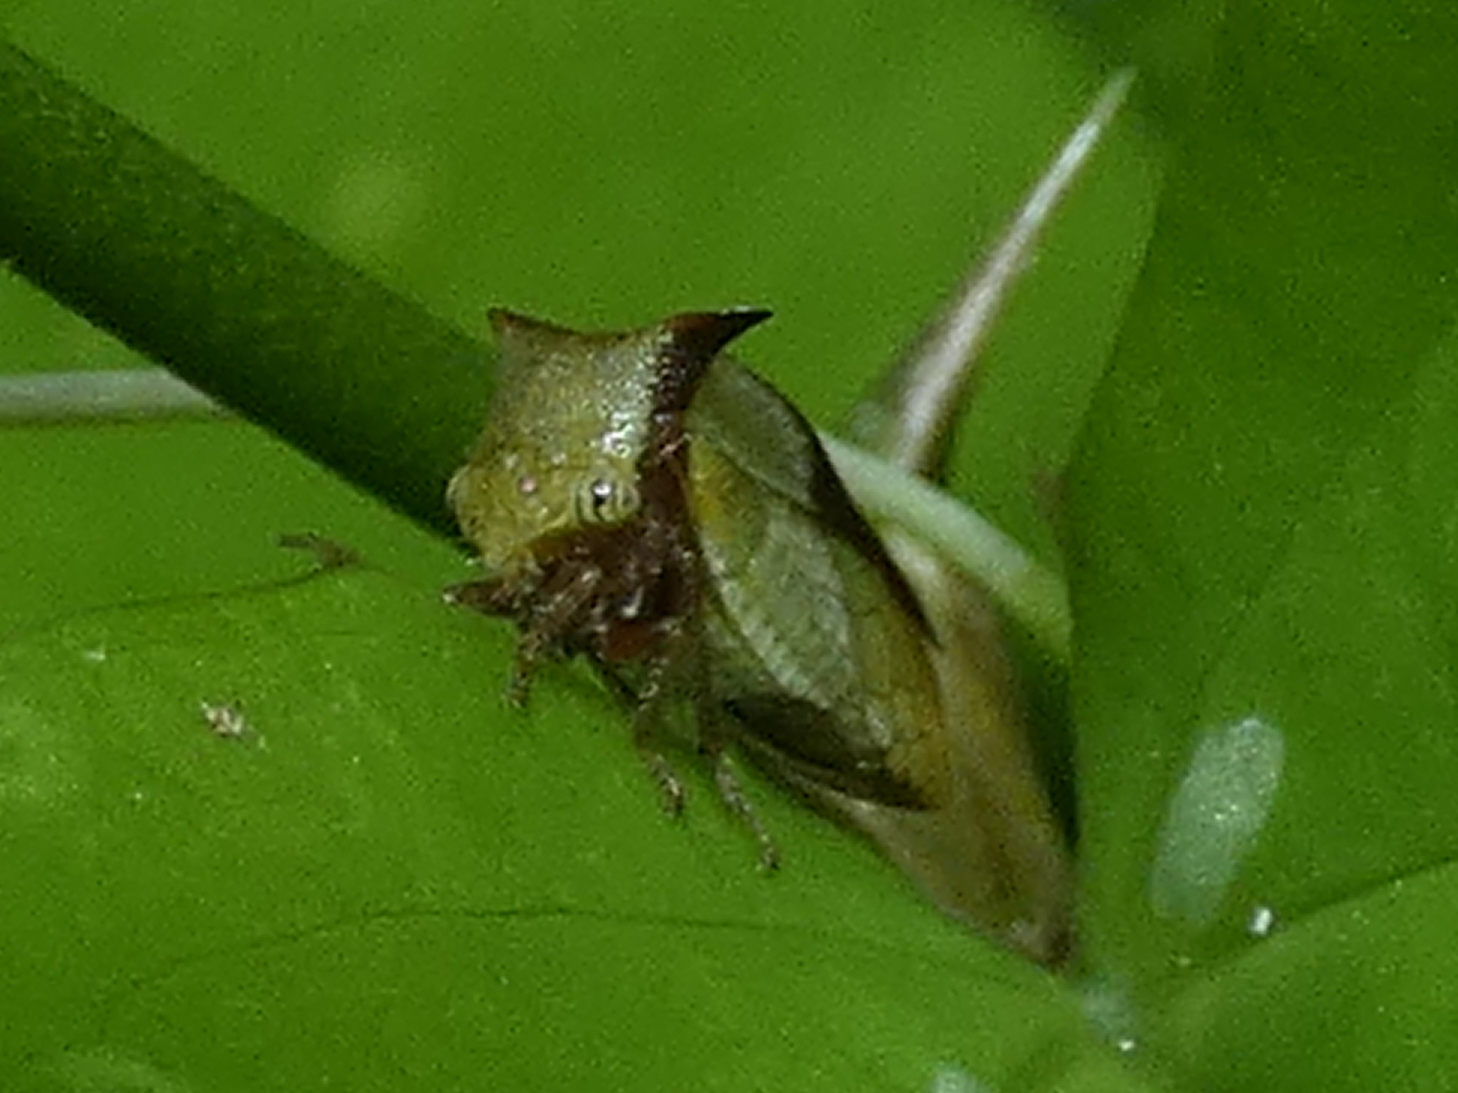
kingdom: Animalia
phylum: Arthropoda
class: Insecta
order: Hemiptera
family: Membracidae
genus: Ceresa
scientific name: Ceresa ustulata
